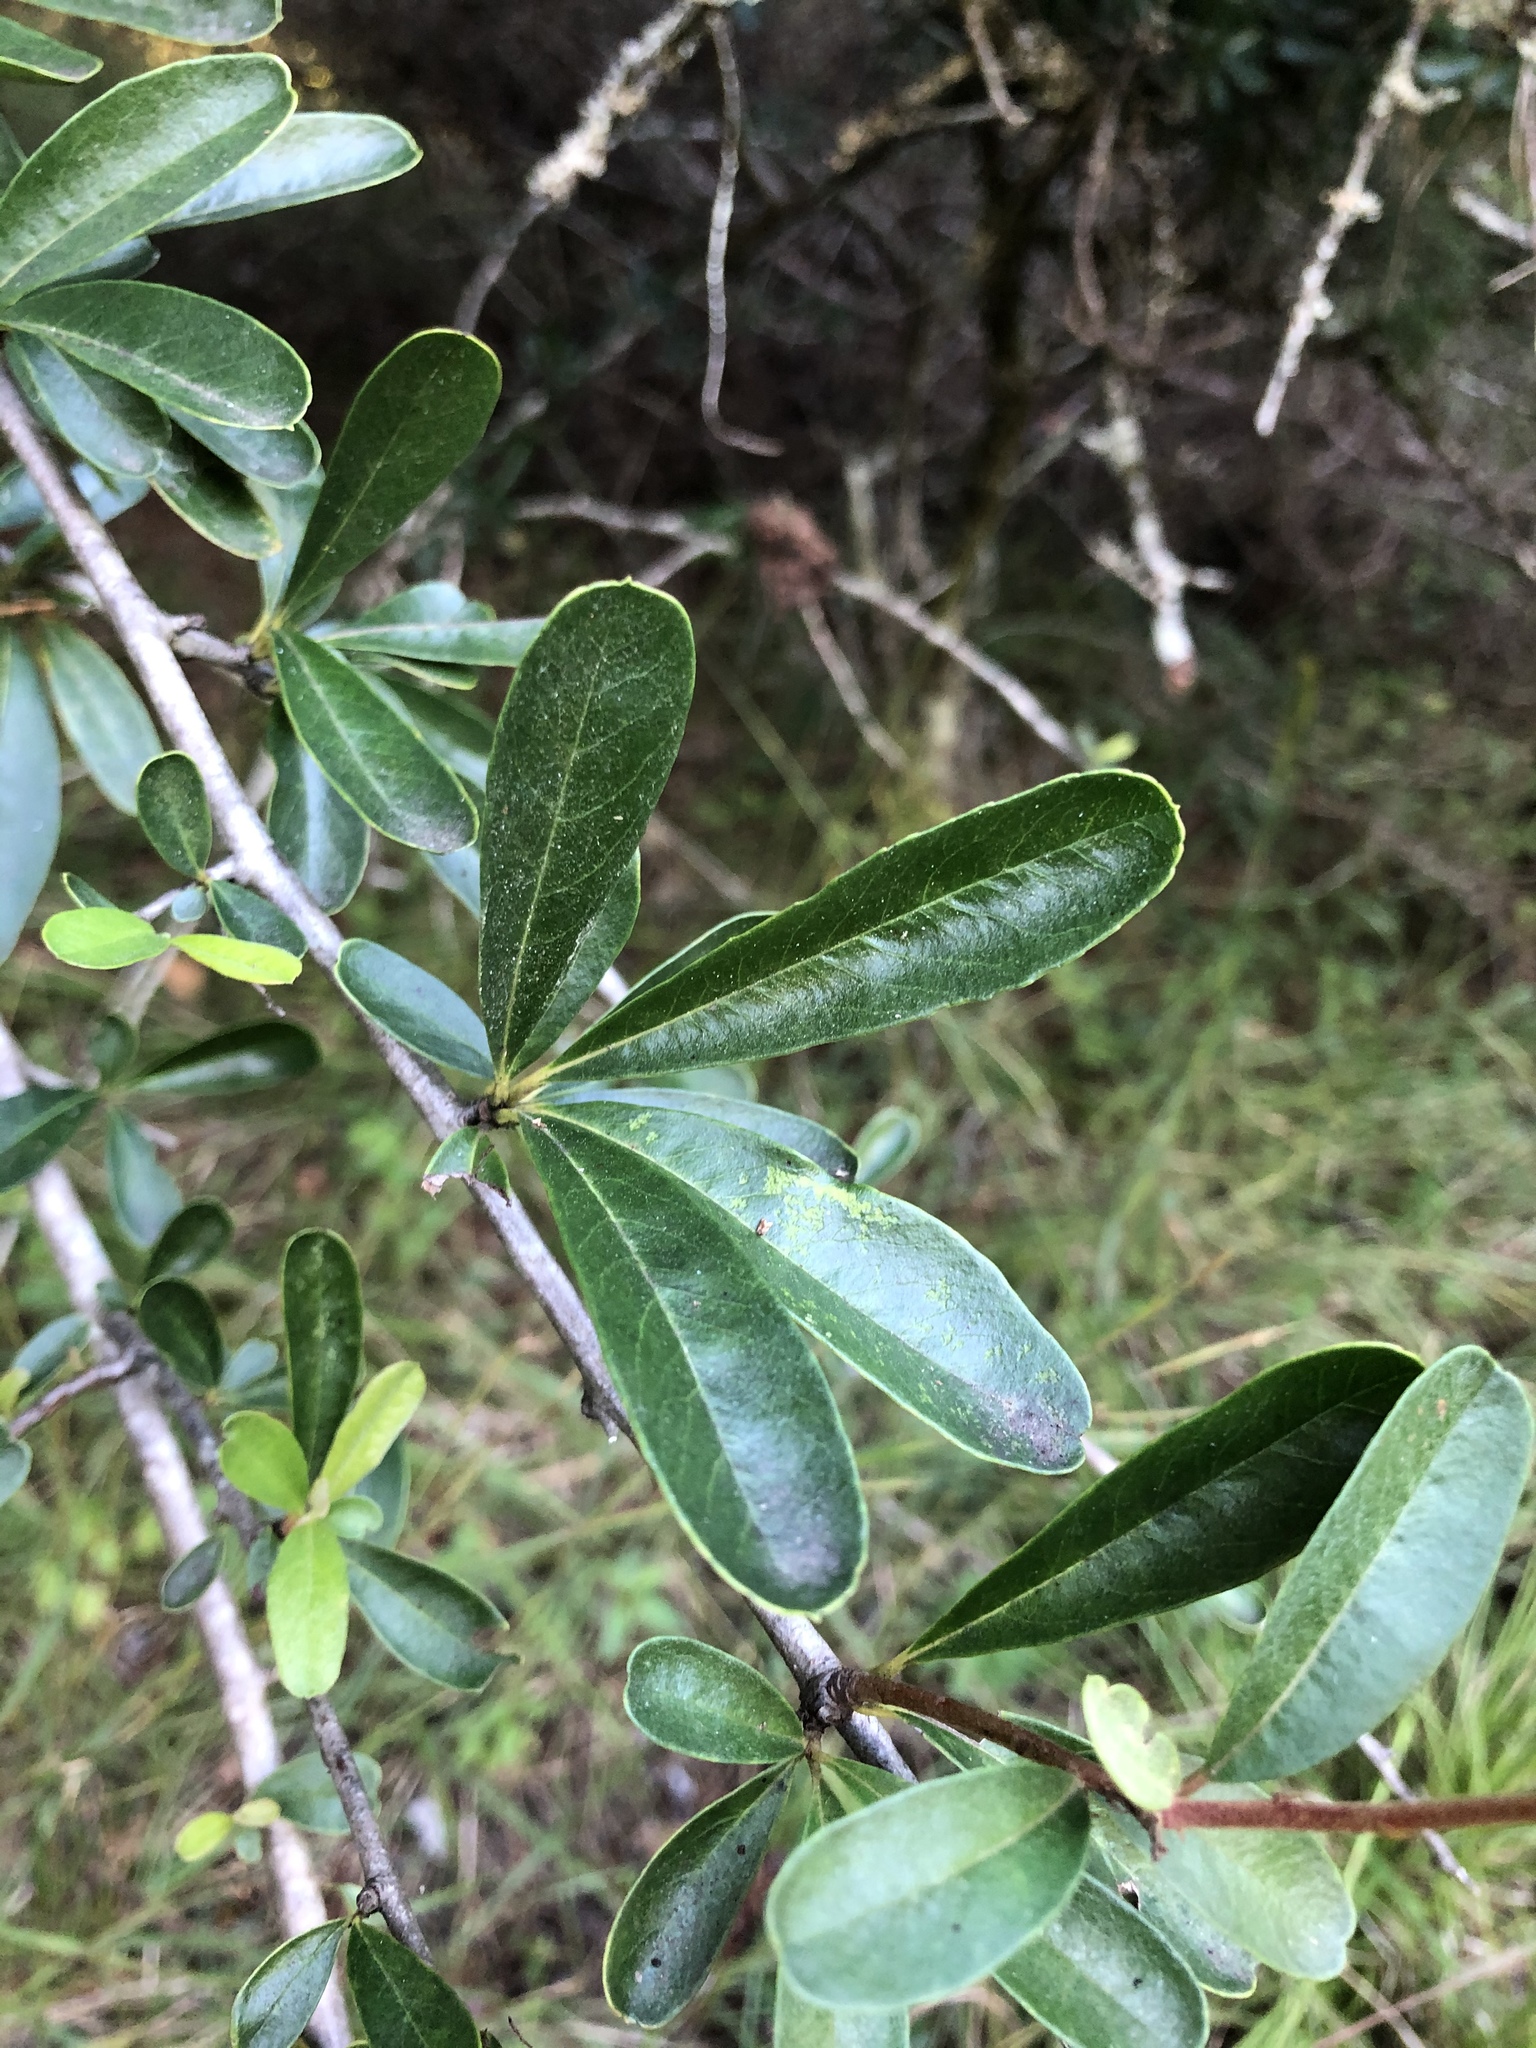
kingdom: Plantae
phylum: Tracheophyta
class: Magnoliopsida
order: Rosales
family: Rosaceae
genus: Pyracantha
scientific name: Pyracantha koidzumii
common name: Formosa firethorn
